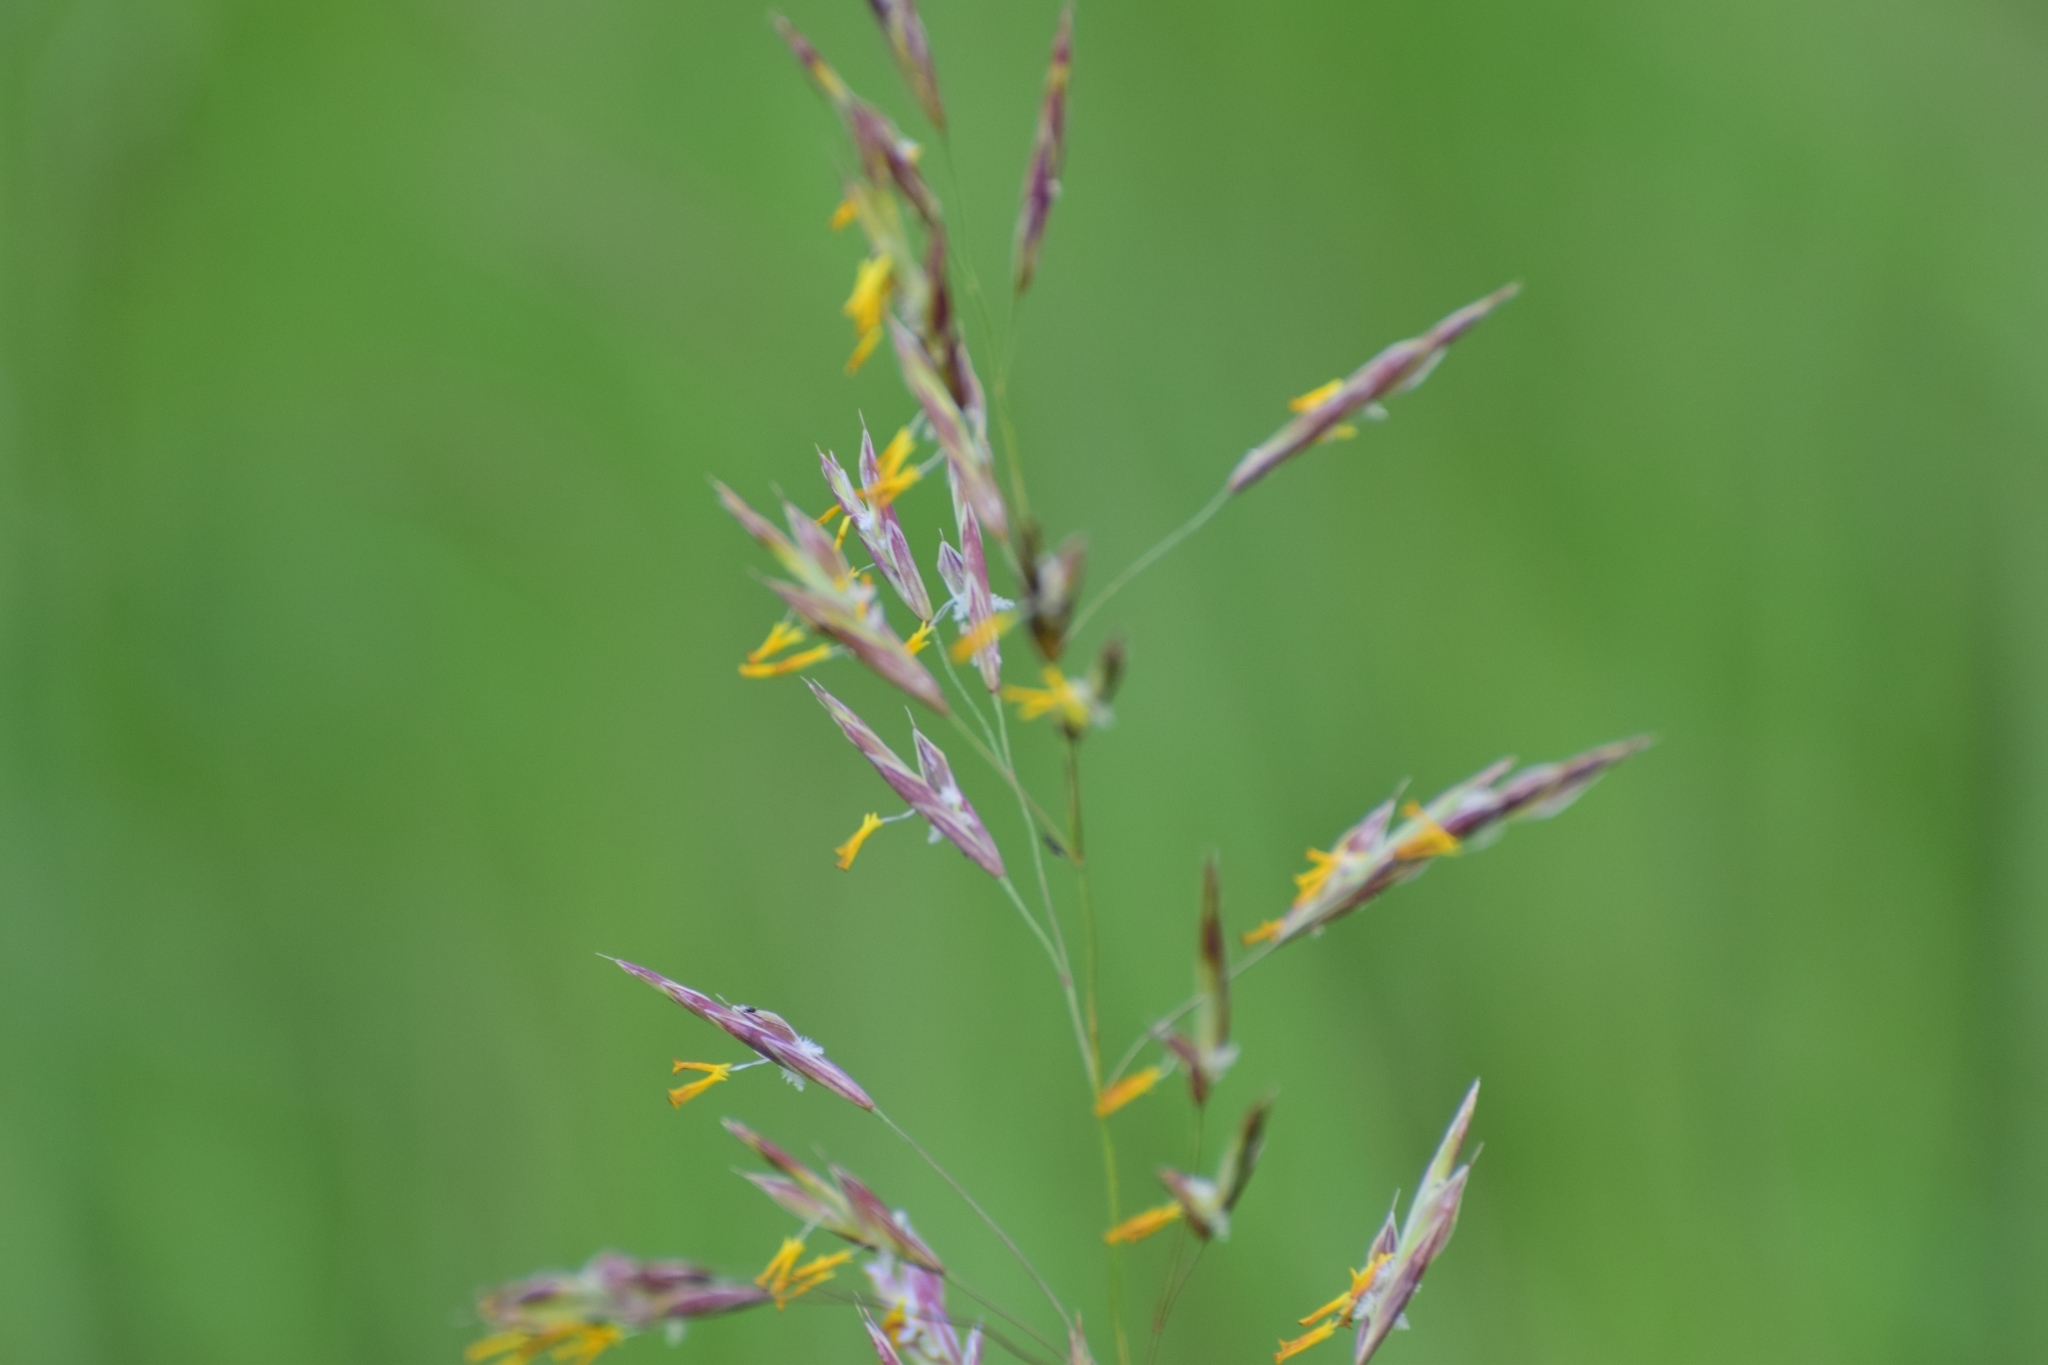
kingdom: Plantae
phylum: Tracheophyta
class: Liliopsida
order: Poales
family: Poaceae
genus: Bromus
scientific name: Bromus inermis
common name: Smooth brome
